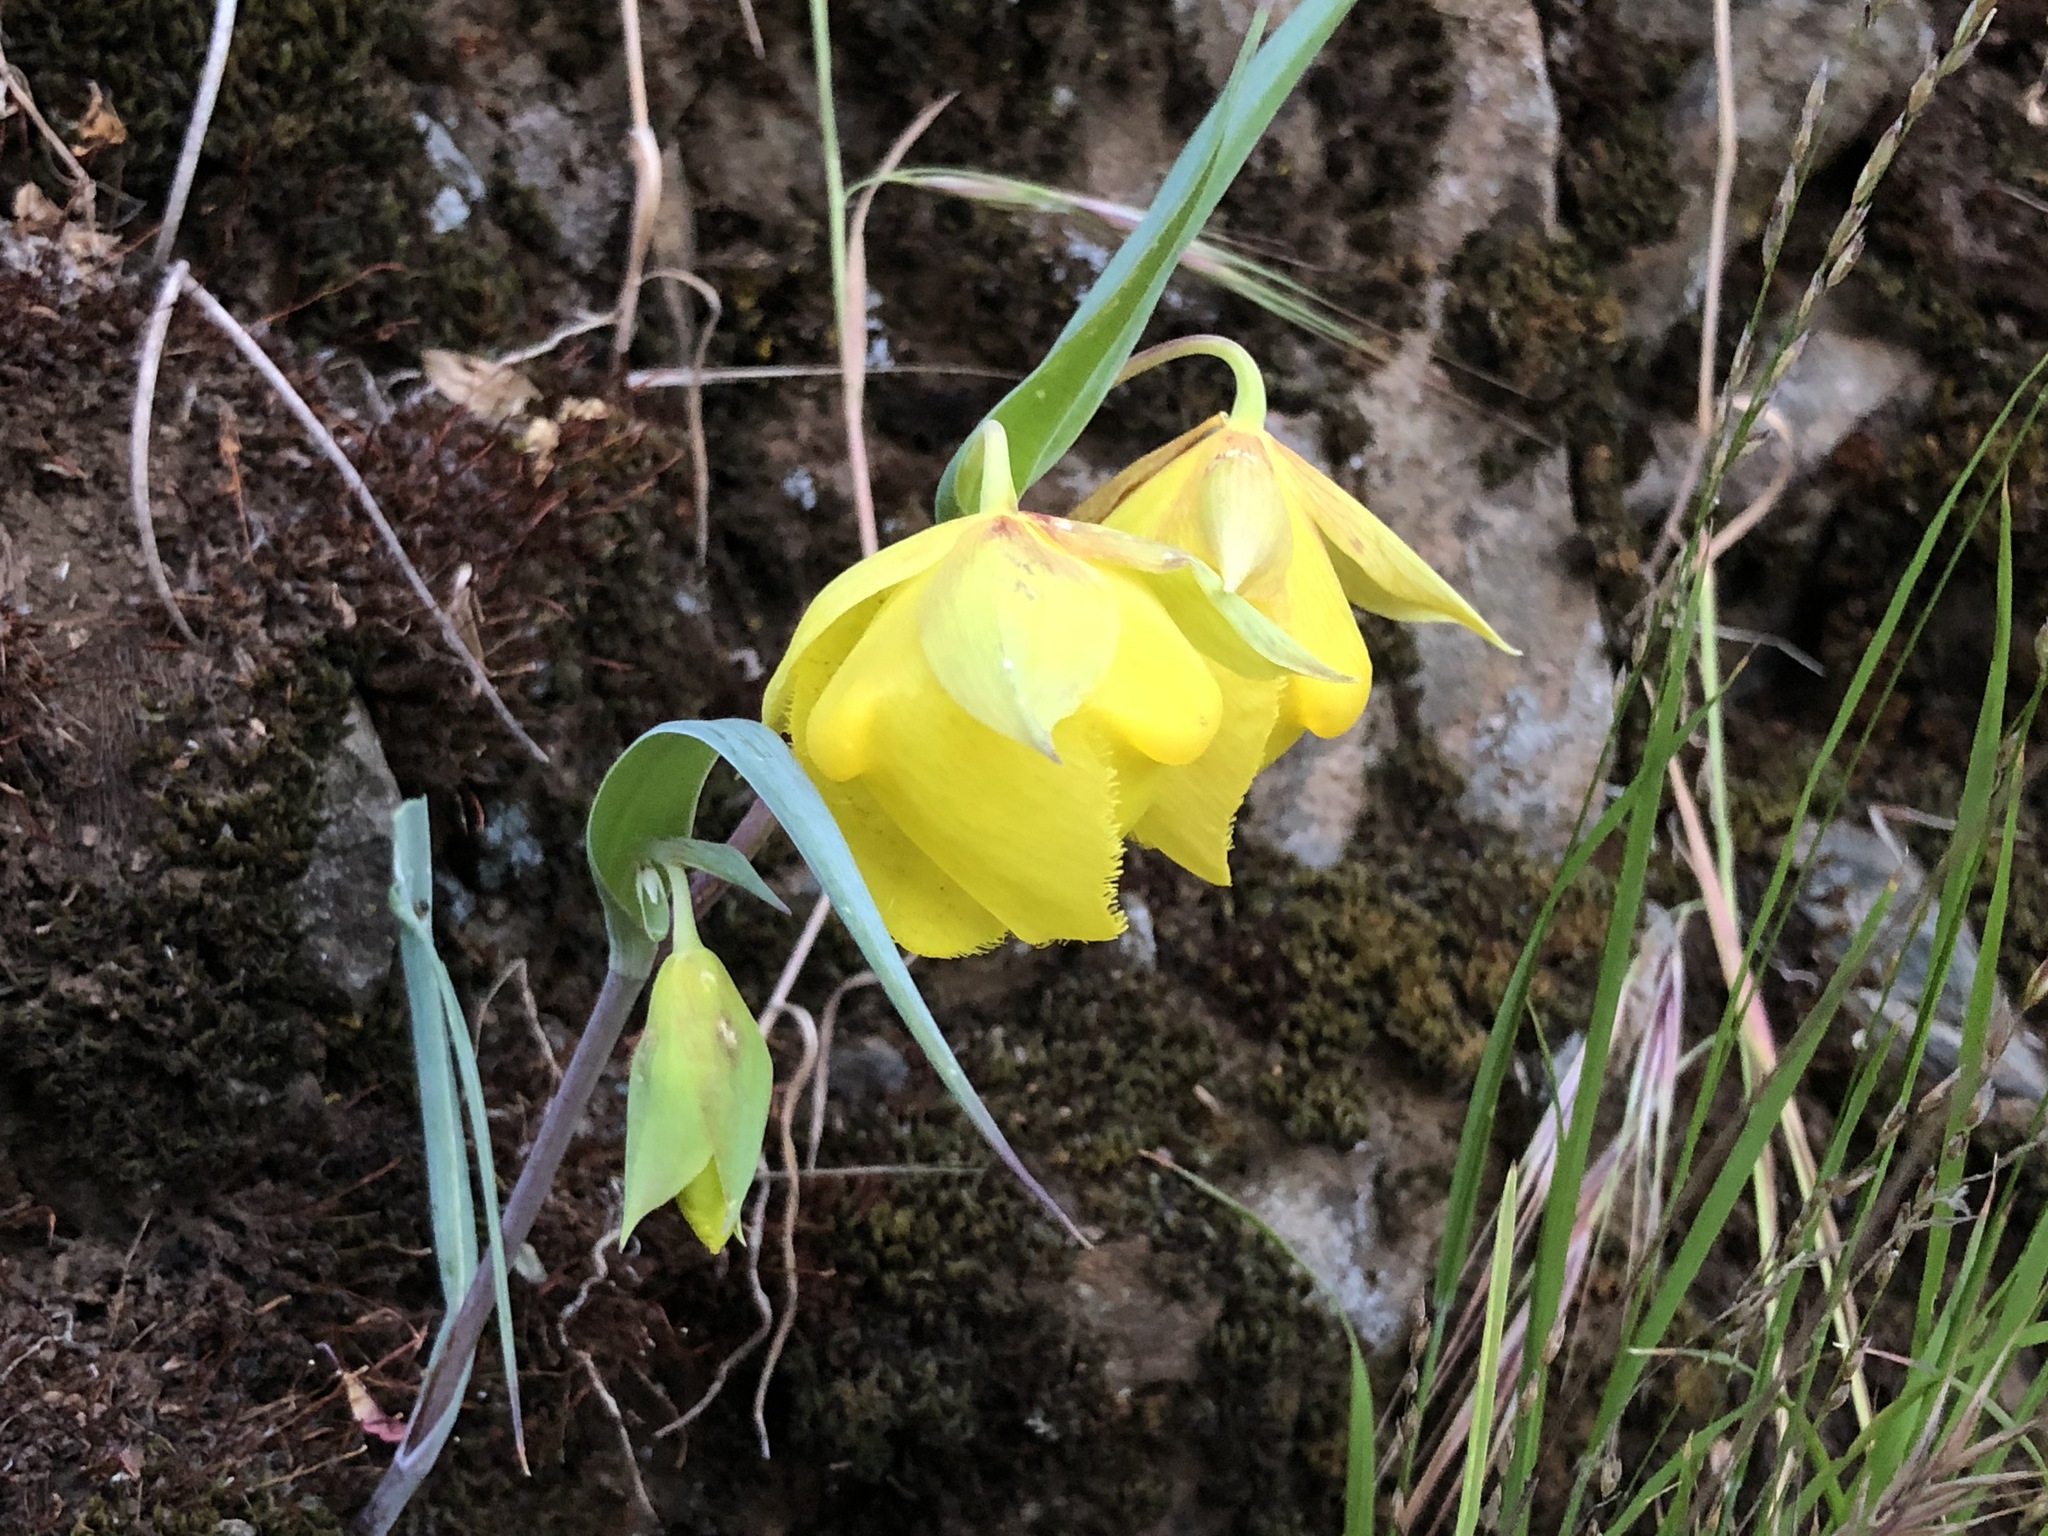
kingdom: Plantae
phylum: Tracheophyta
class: Liliopsida
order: Liliales
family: Liliaceae
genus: Calochortus
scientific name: Calochortus pulchellus
